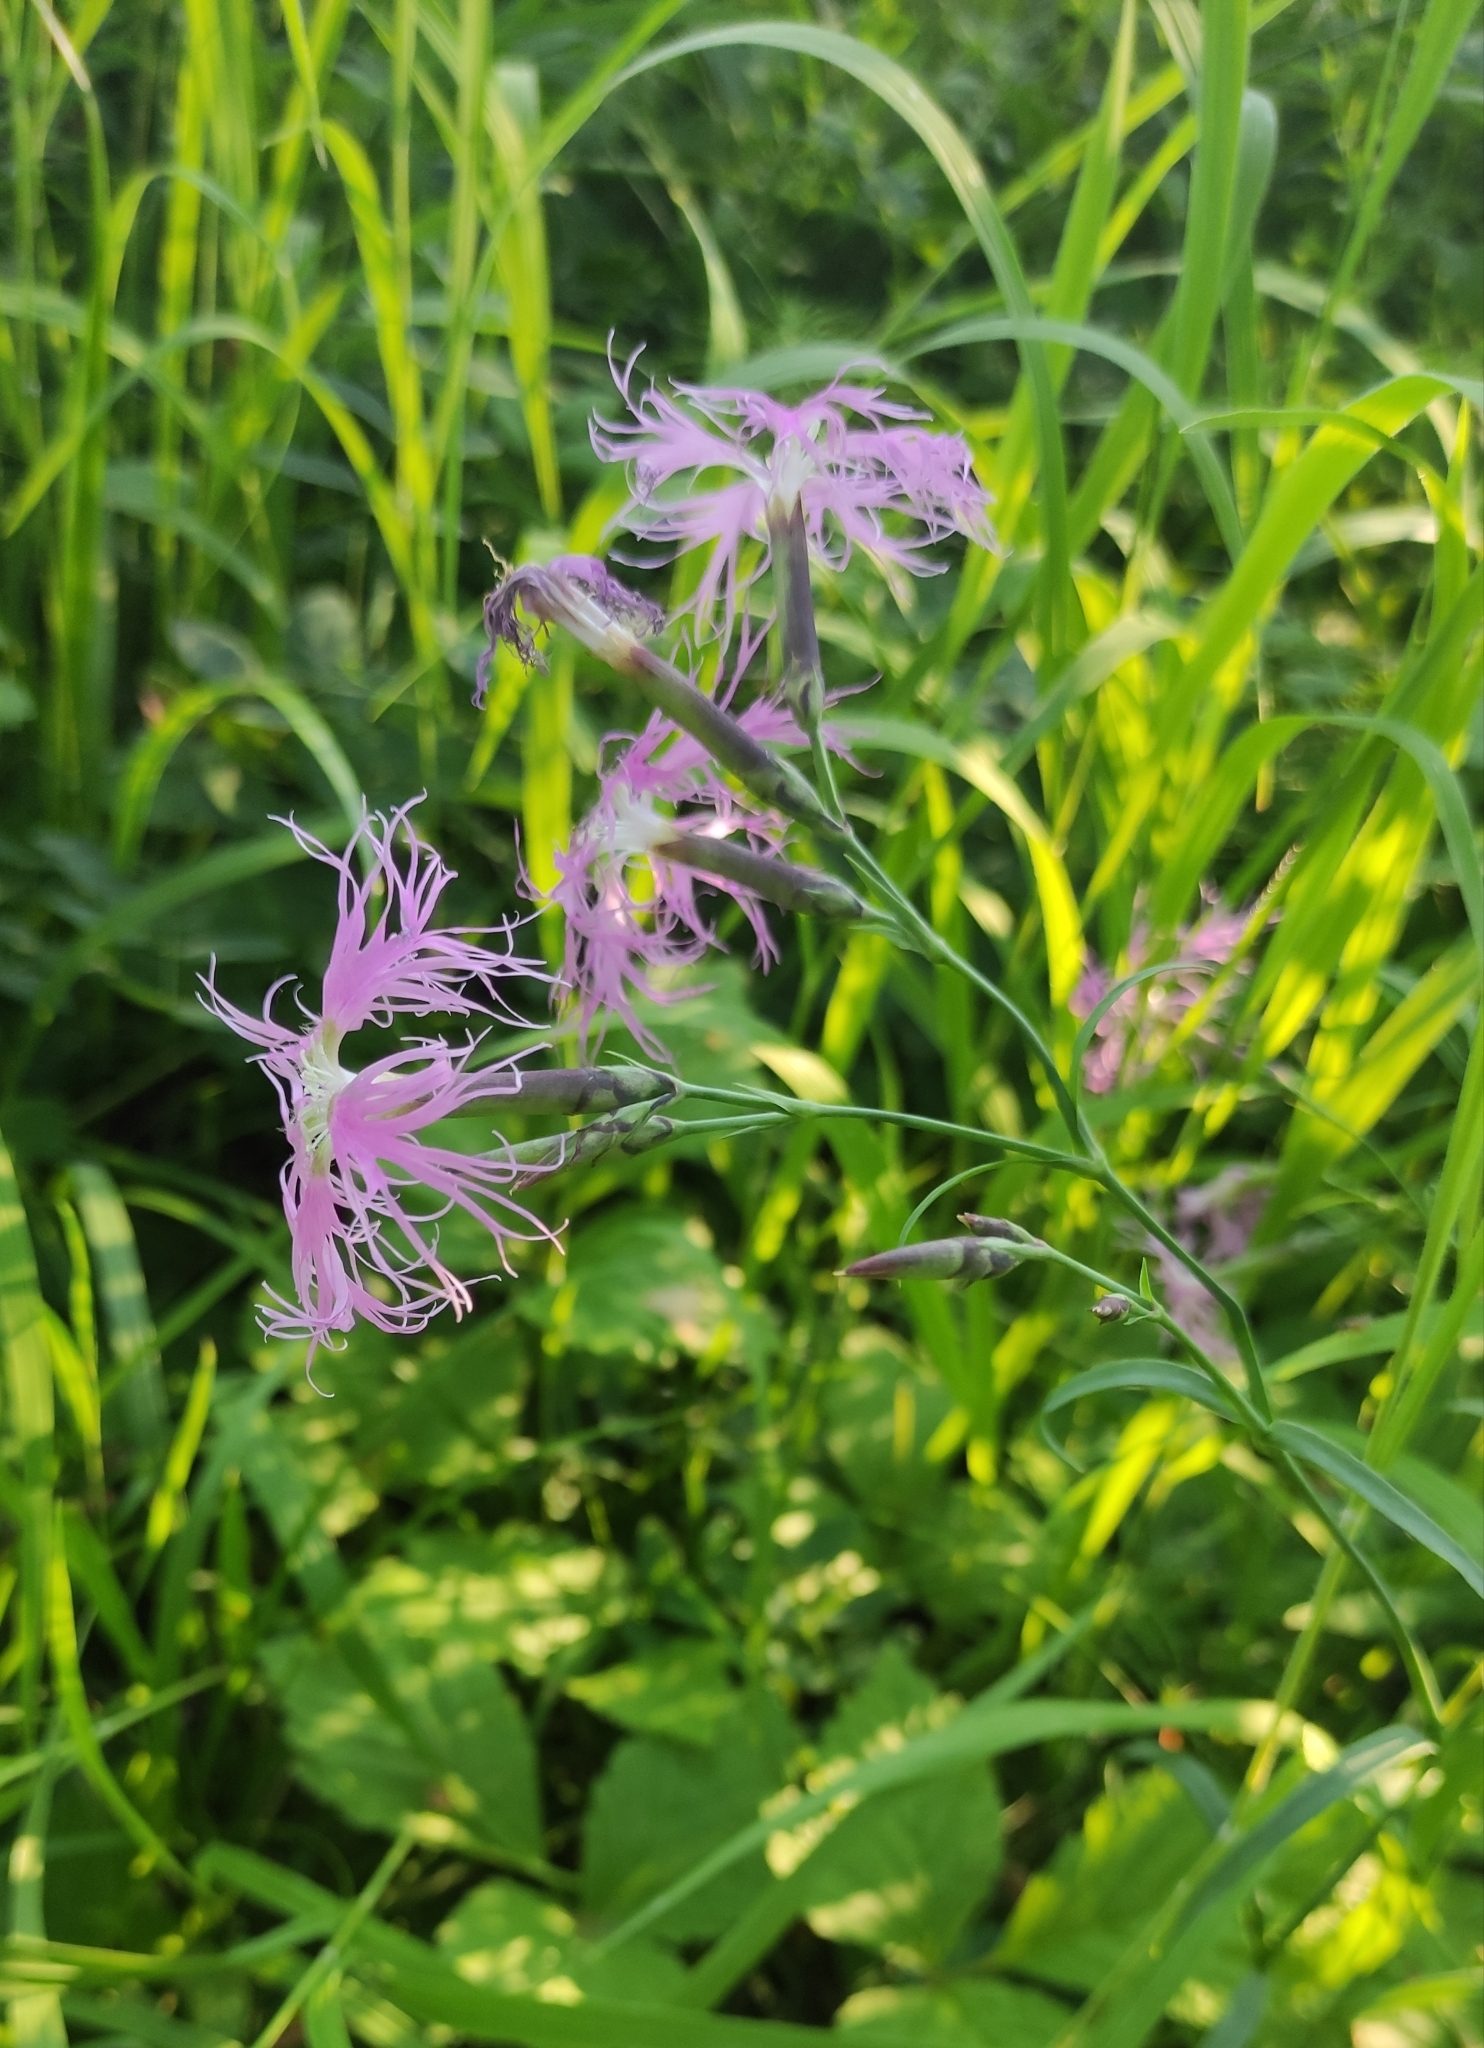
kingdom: Plantae
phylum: Tracheophyta
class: Magnoliopsida
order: Caryophyllales
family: Caryophyllaceae
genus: Dianthus
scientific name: Dianthus superbus
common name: Fringed pink
